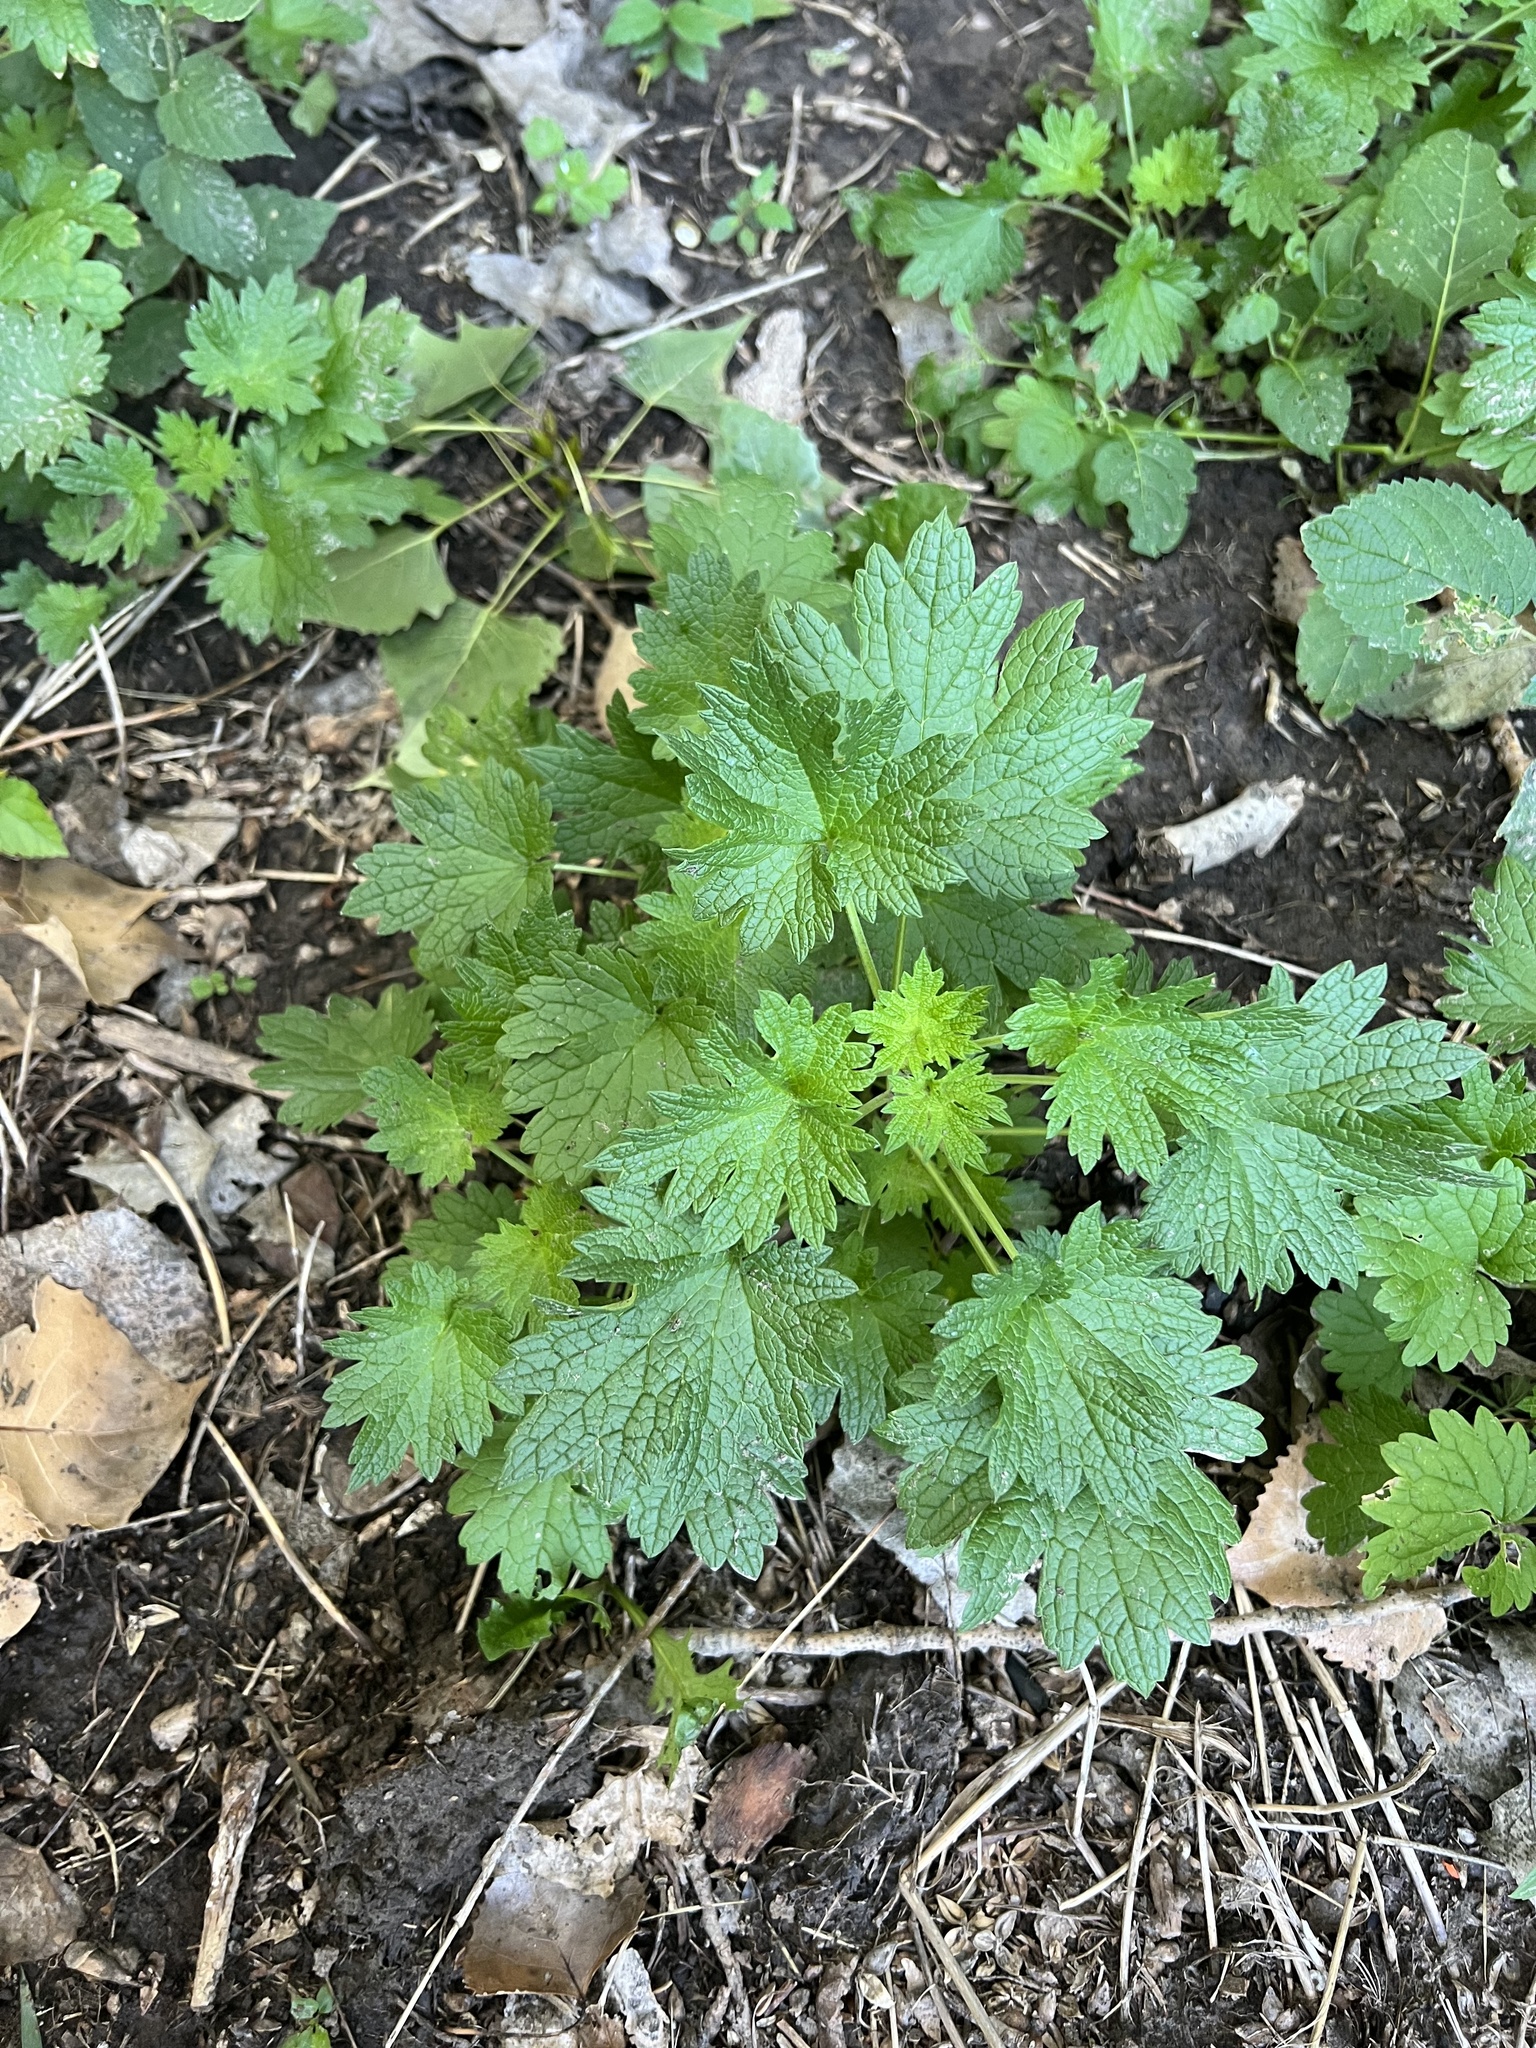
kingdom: Plantae
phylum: Tracheophyta
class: Magnoliopsida
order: Lamiales
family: Lamiaceae
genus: Leonurus
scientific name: Leonurus cardiaca
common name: Motherwort
